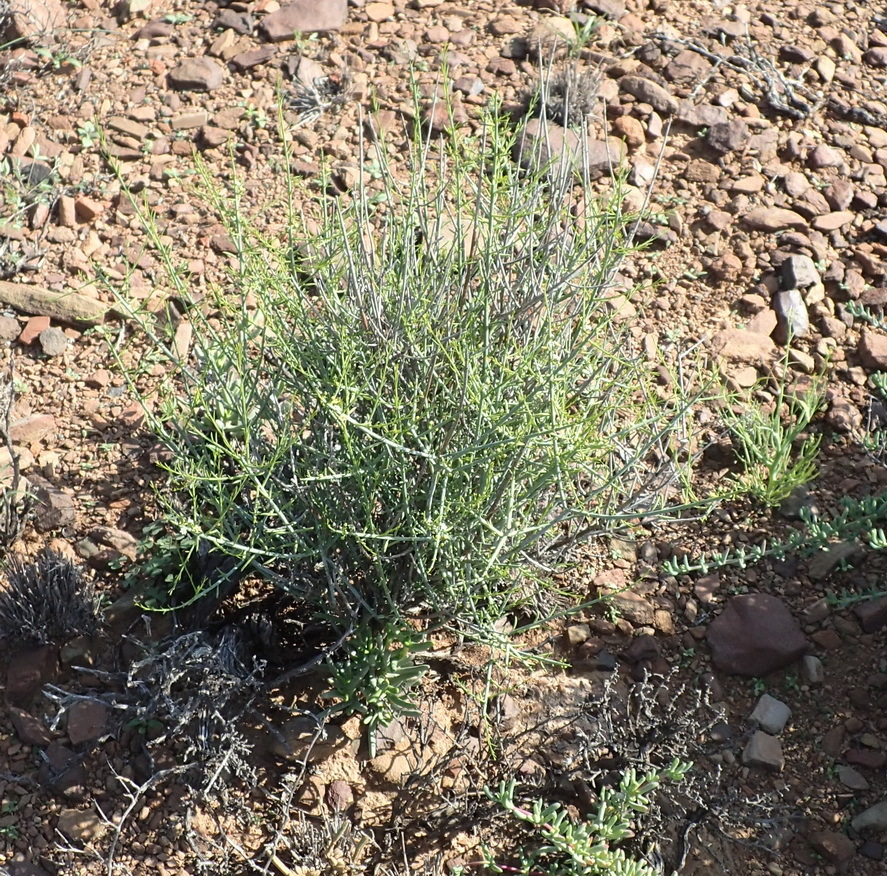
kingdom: Plantae
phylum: Tracheophyta
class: Magnoliopsida
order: Santalales
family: Thesiaceae
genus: Lacomucinaea
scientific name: Lacomucinaea lineata
